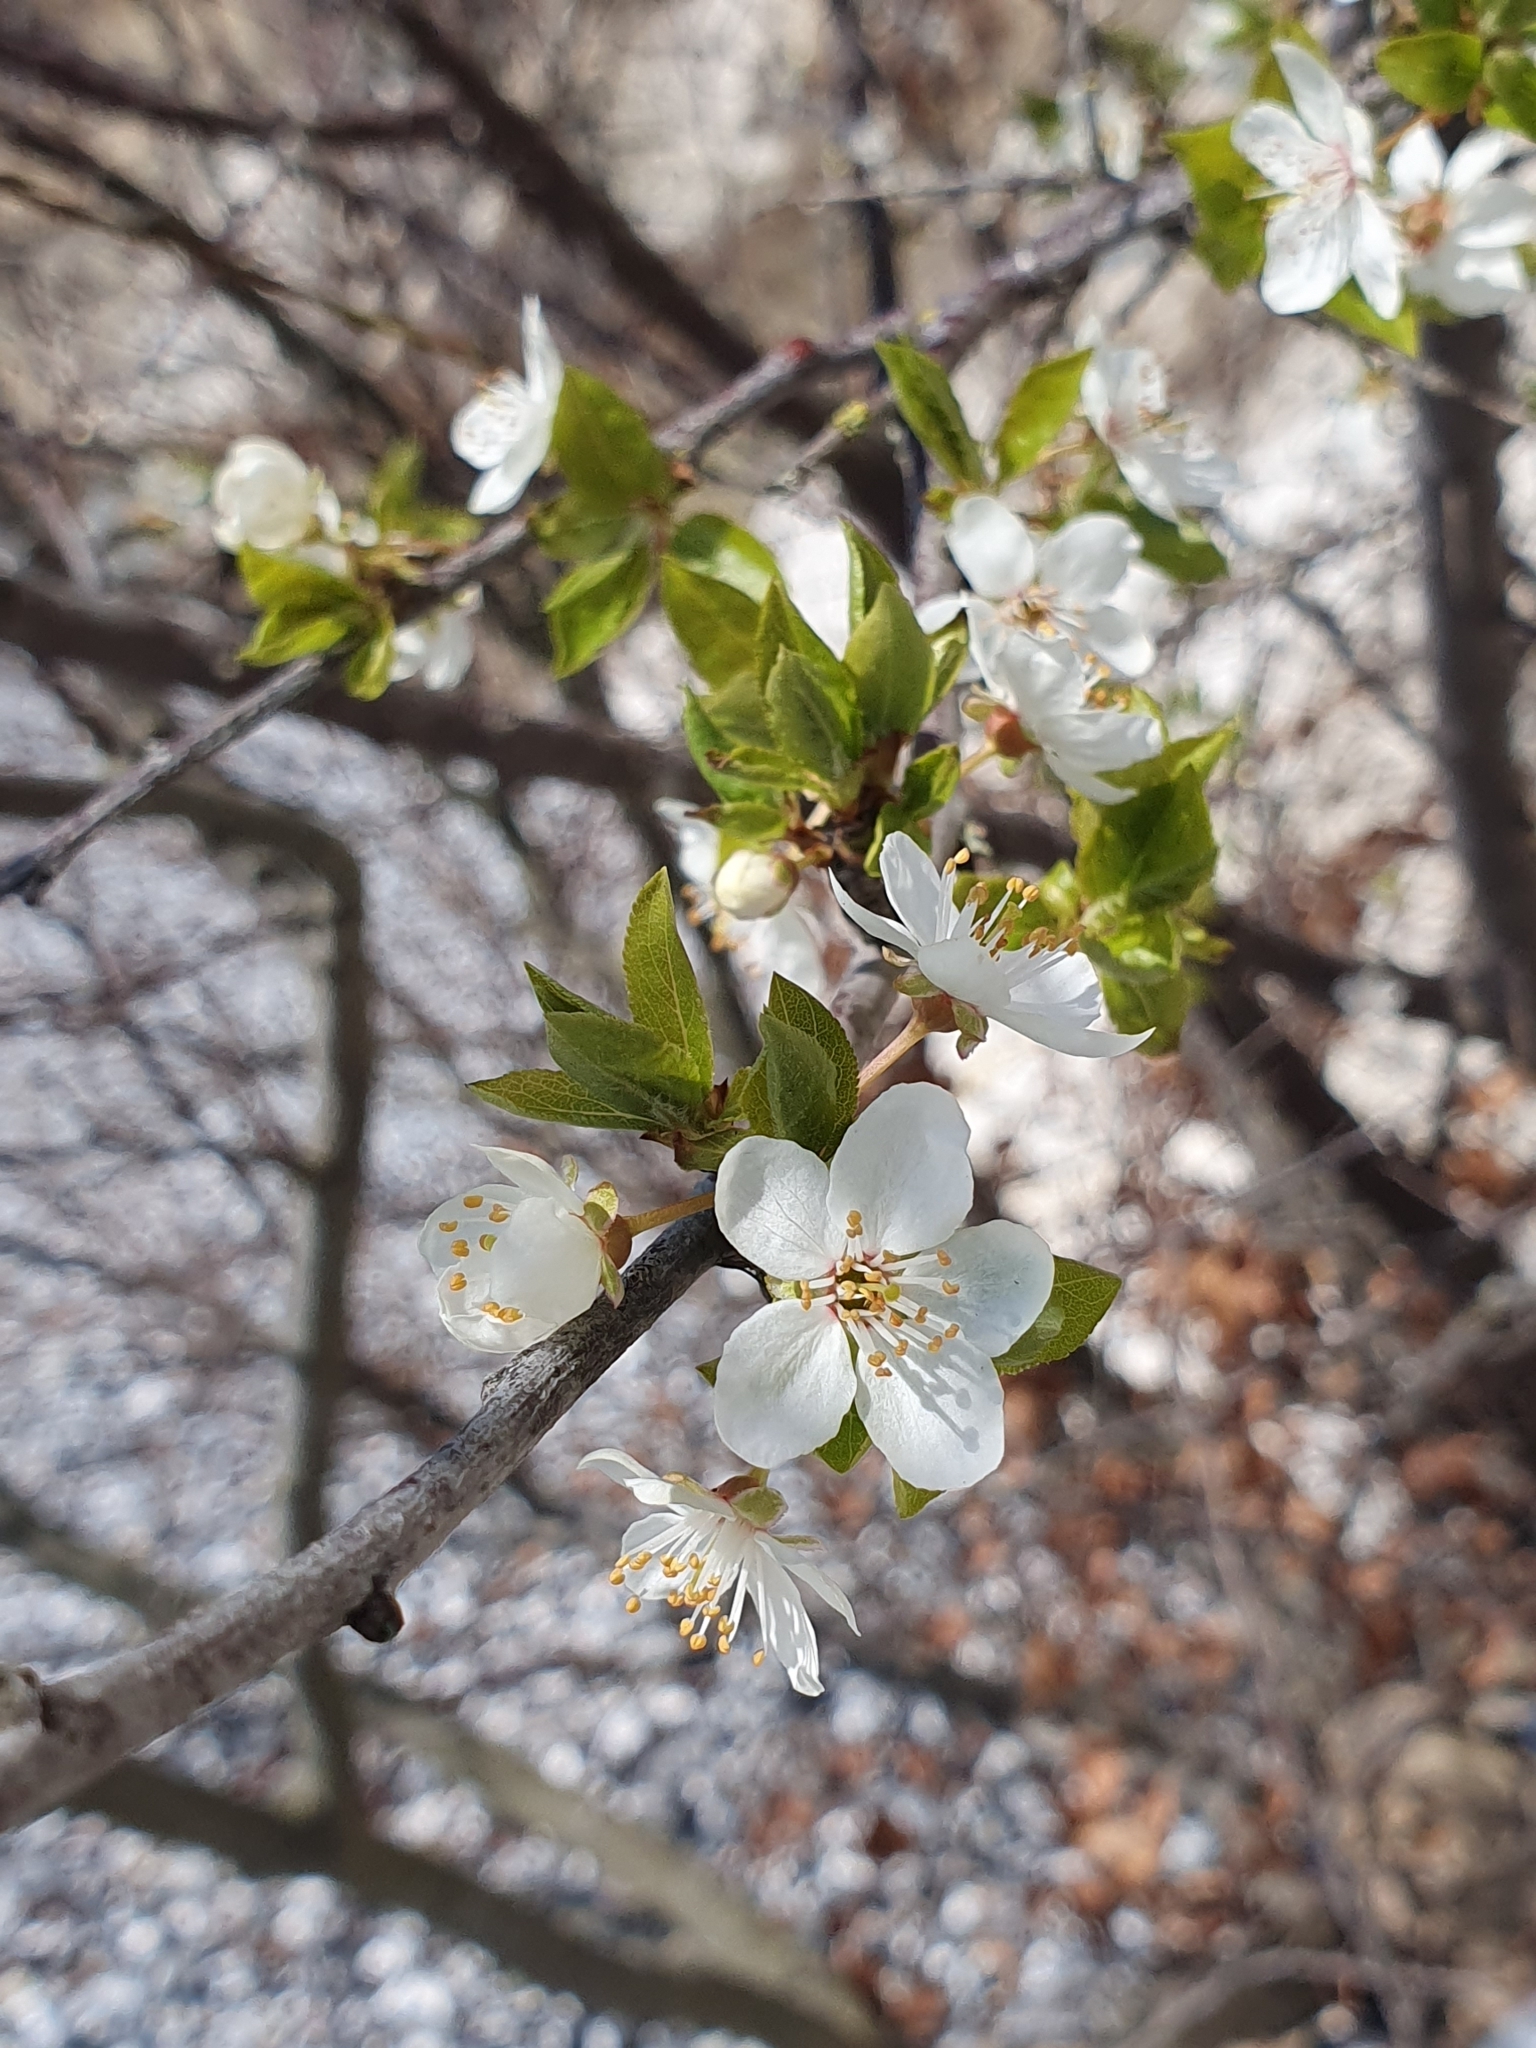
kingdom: Plantae
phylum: Tracheophyta
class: Magnoliopsida
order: Rosales
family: Rosaceae
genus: Prunus
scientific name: Prunus cerasifera
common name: Cherry plum
